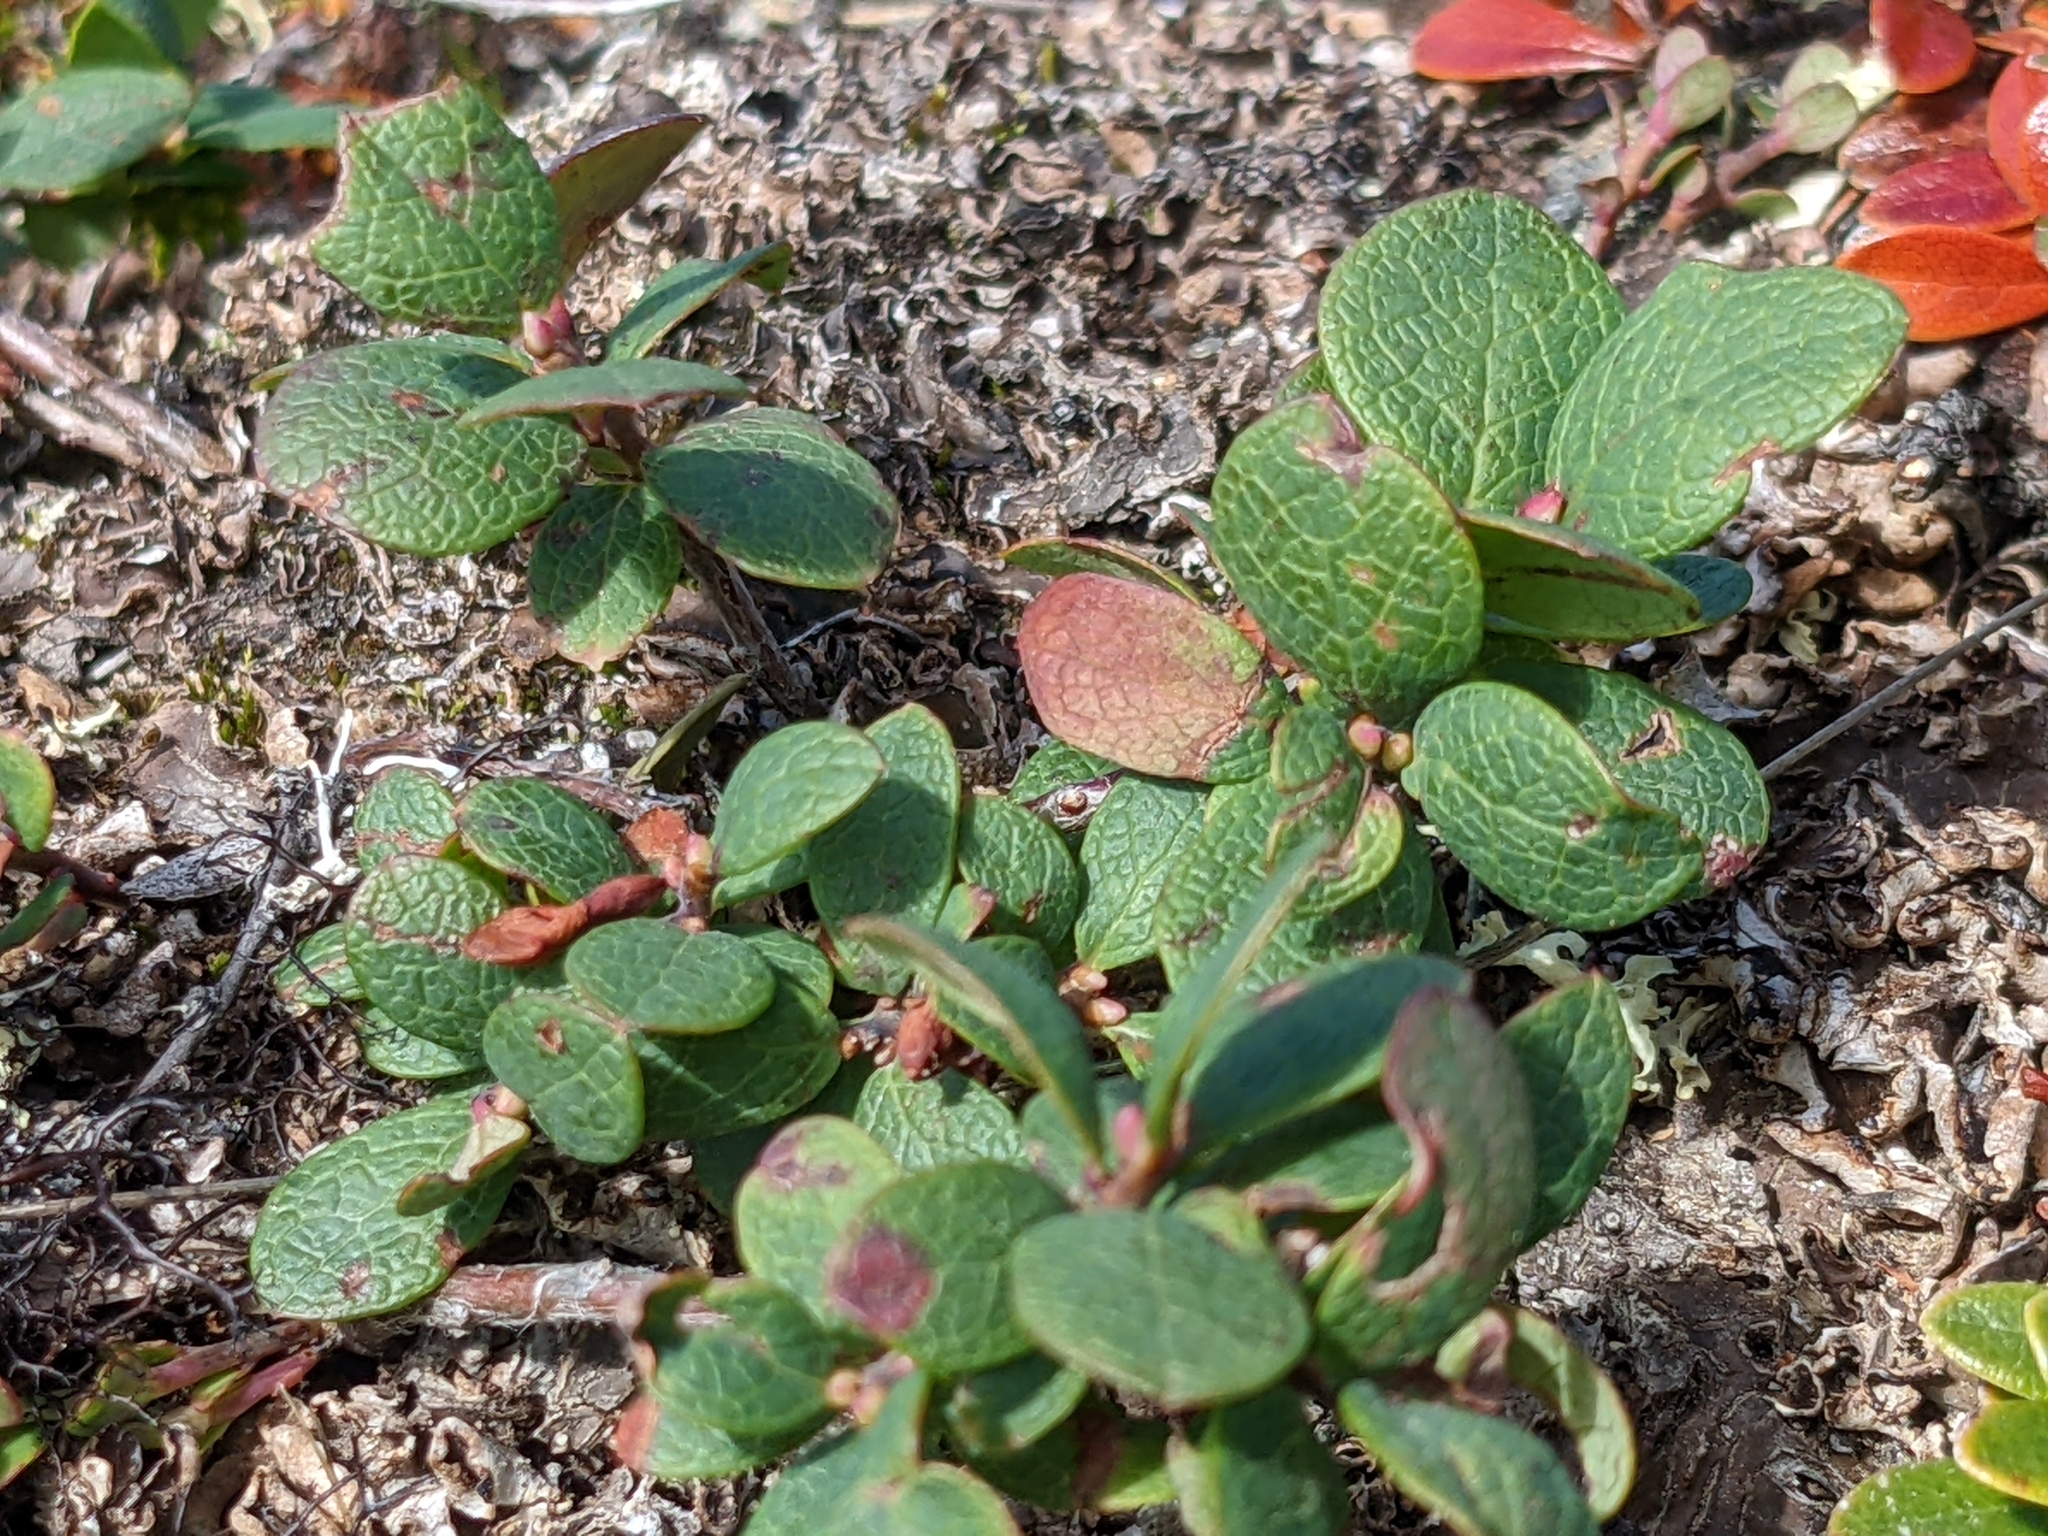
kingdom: Plantae
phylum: Tracheophyta
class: Magnoliopsida
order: Malpighiales
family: Salicaceae
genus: Salix
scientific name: Salix reticulata
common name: Net-leaved willow
